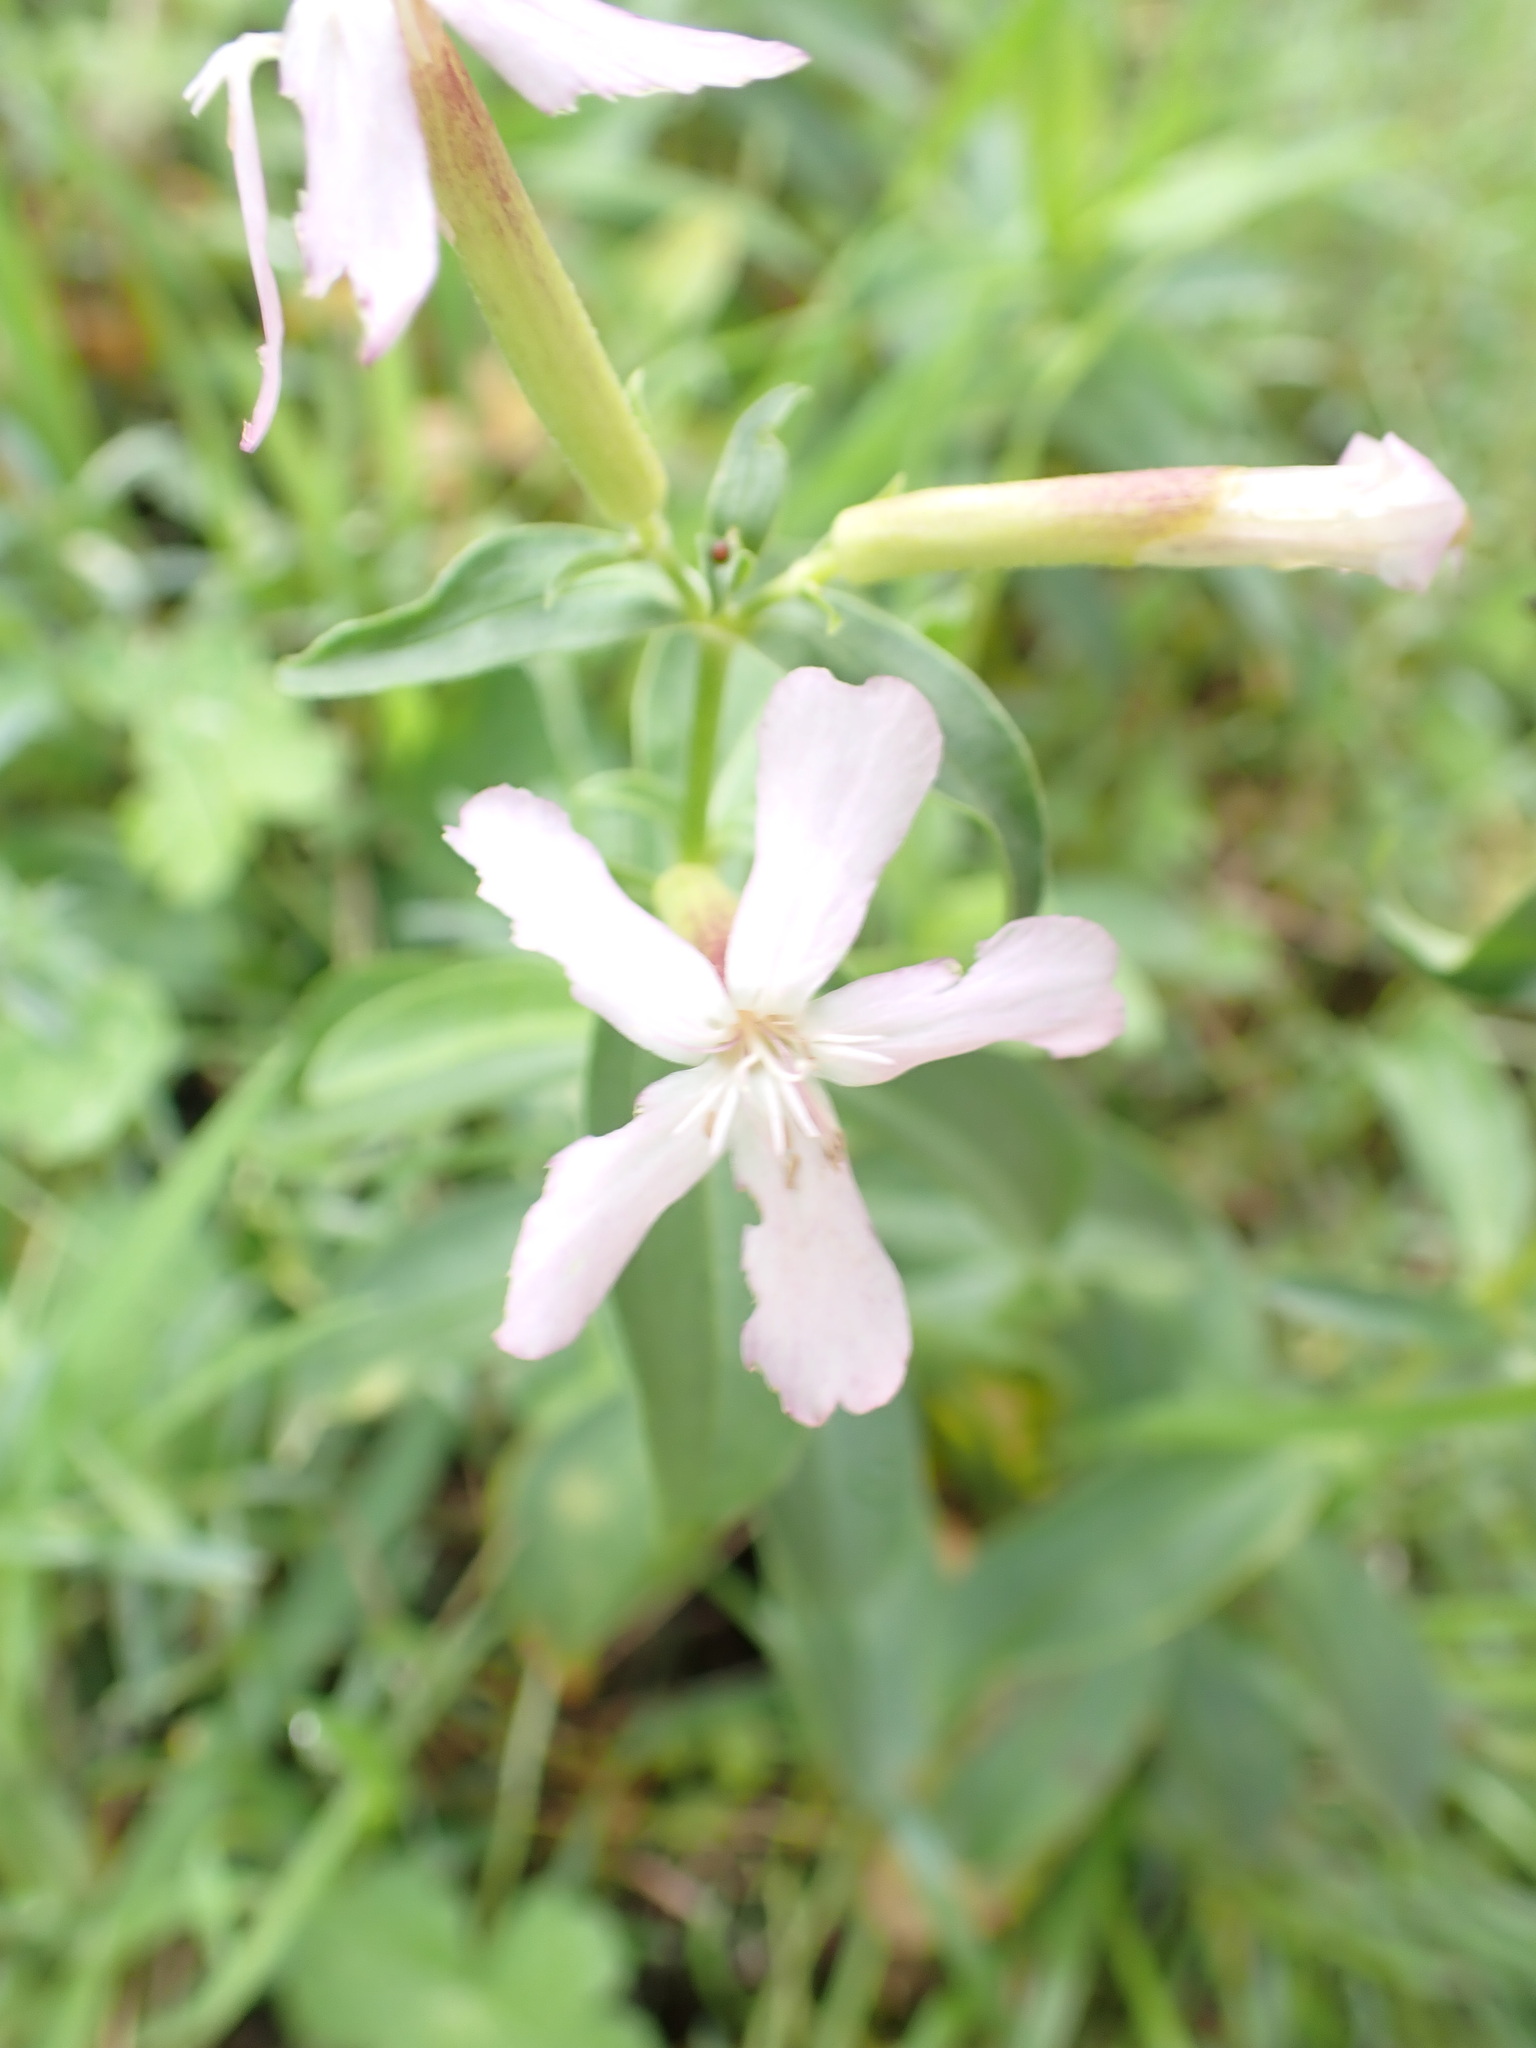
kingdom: Plantae
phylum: Tracheophyta
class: Magnoliopsida
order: Caryophyllales
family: Caryophyllaceae
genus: Saponaria
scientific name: Saponaria officinalis
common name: Soapwort
